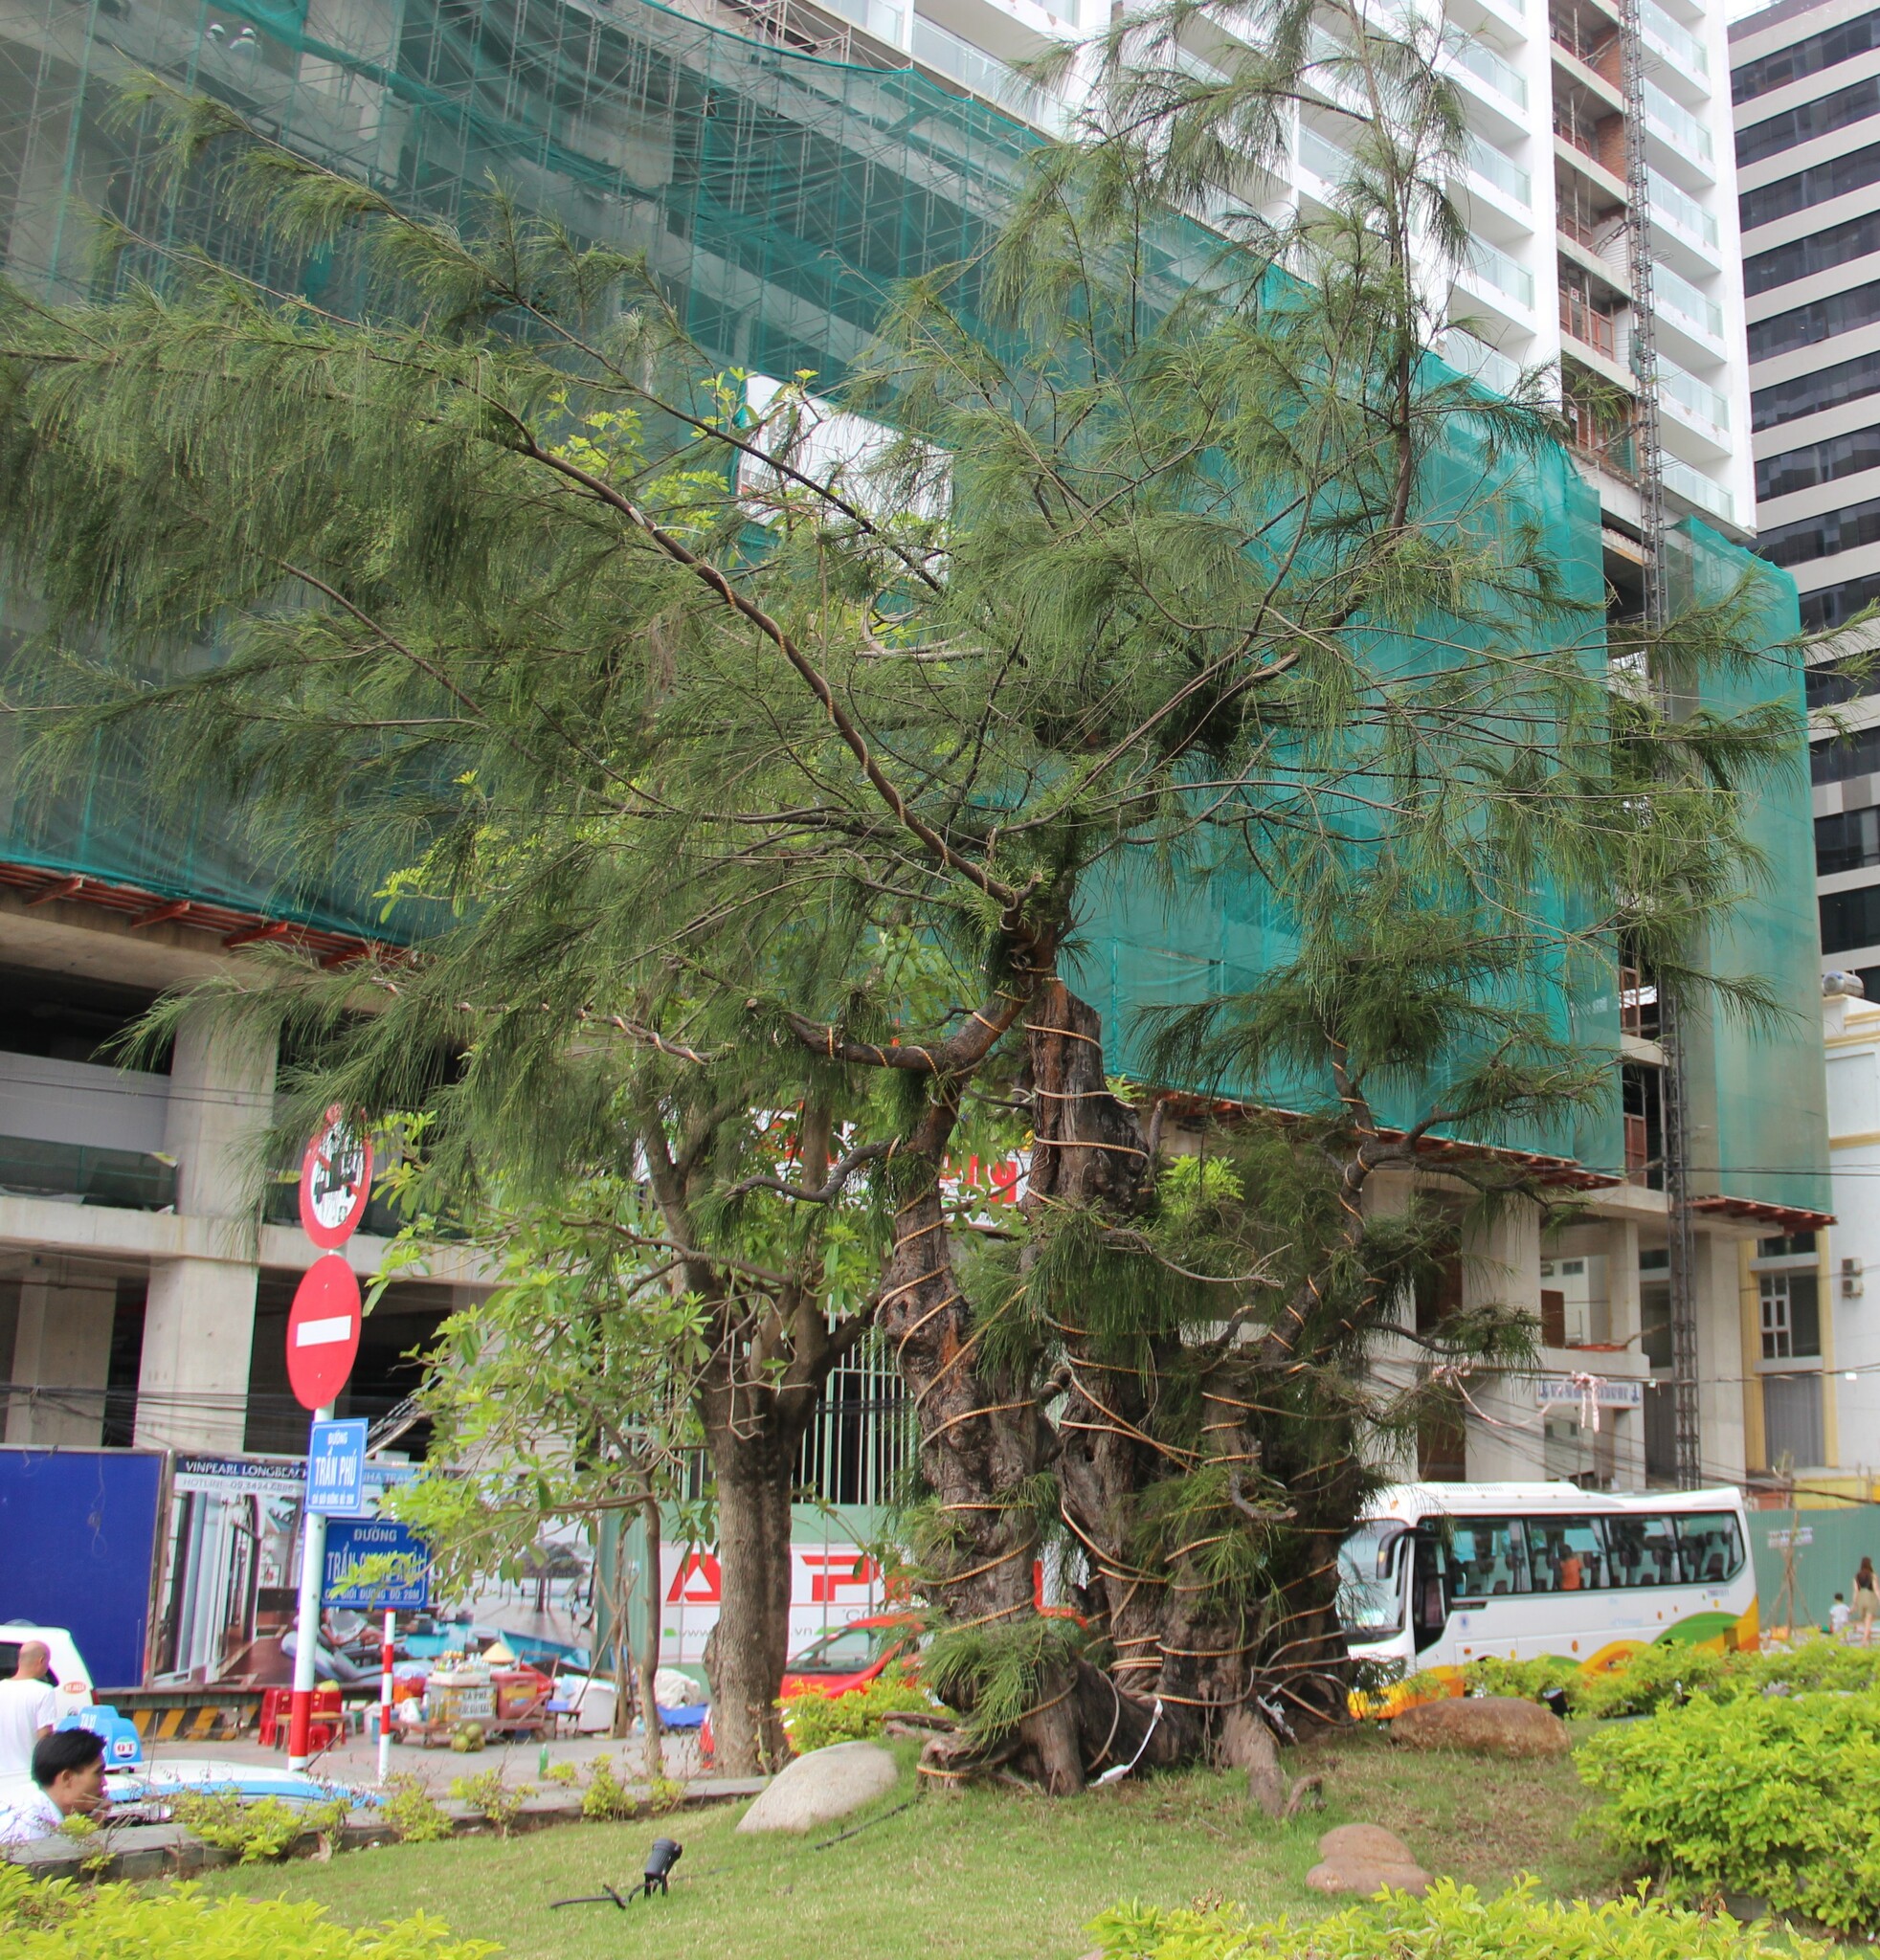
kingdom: Plantae
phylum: Tracheophyta
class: Magnoliopsida
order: Fagales
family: Casuarinaceae
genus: Casuarina
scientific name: Casuarina equisetifolia
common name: Beach sheoak
